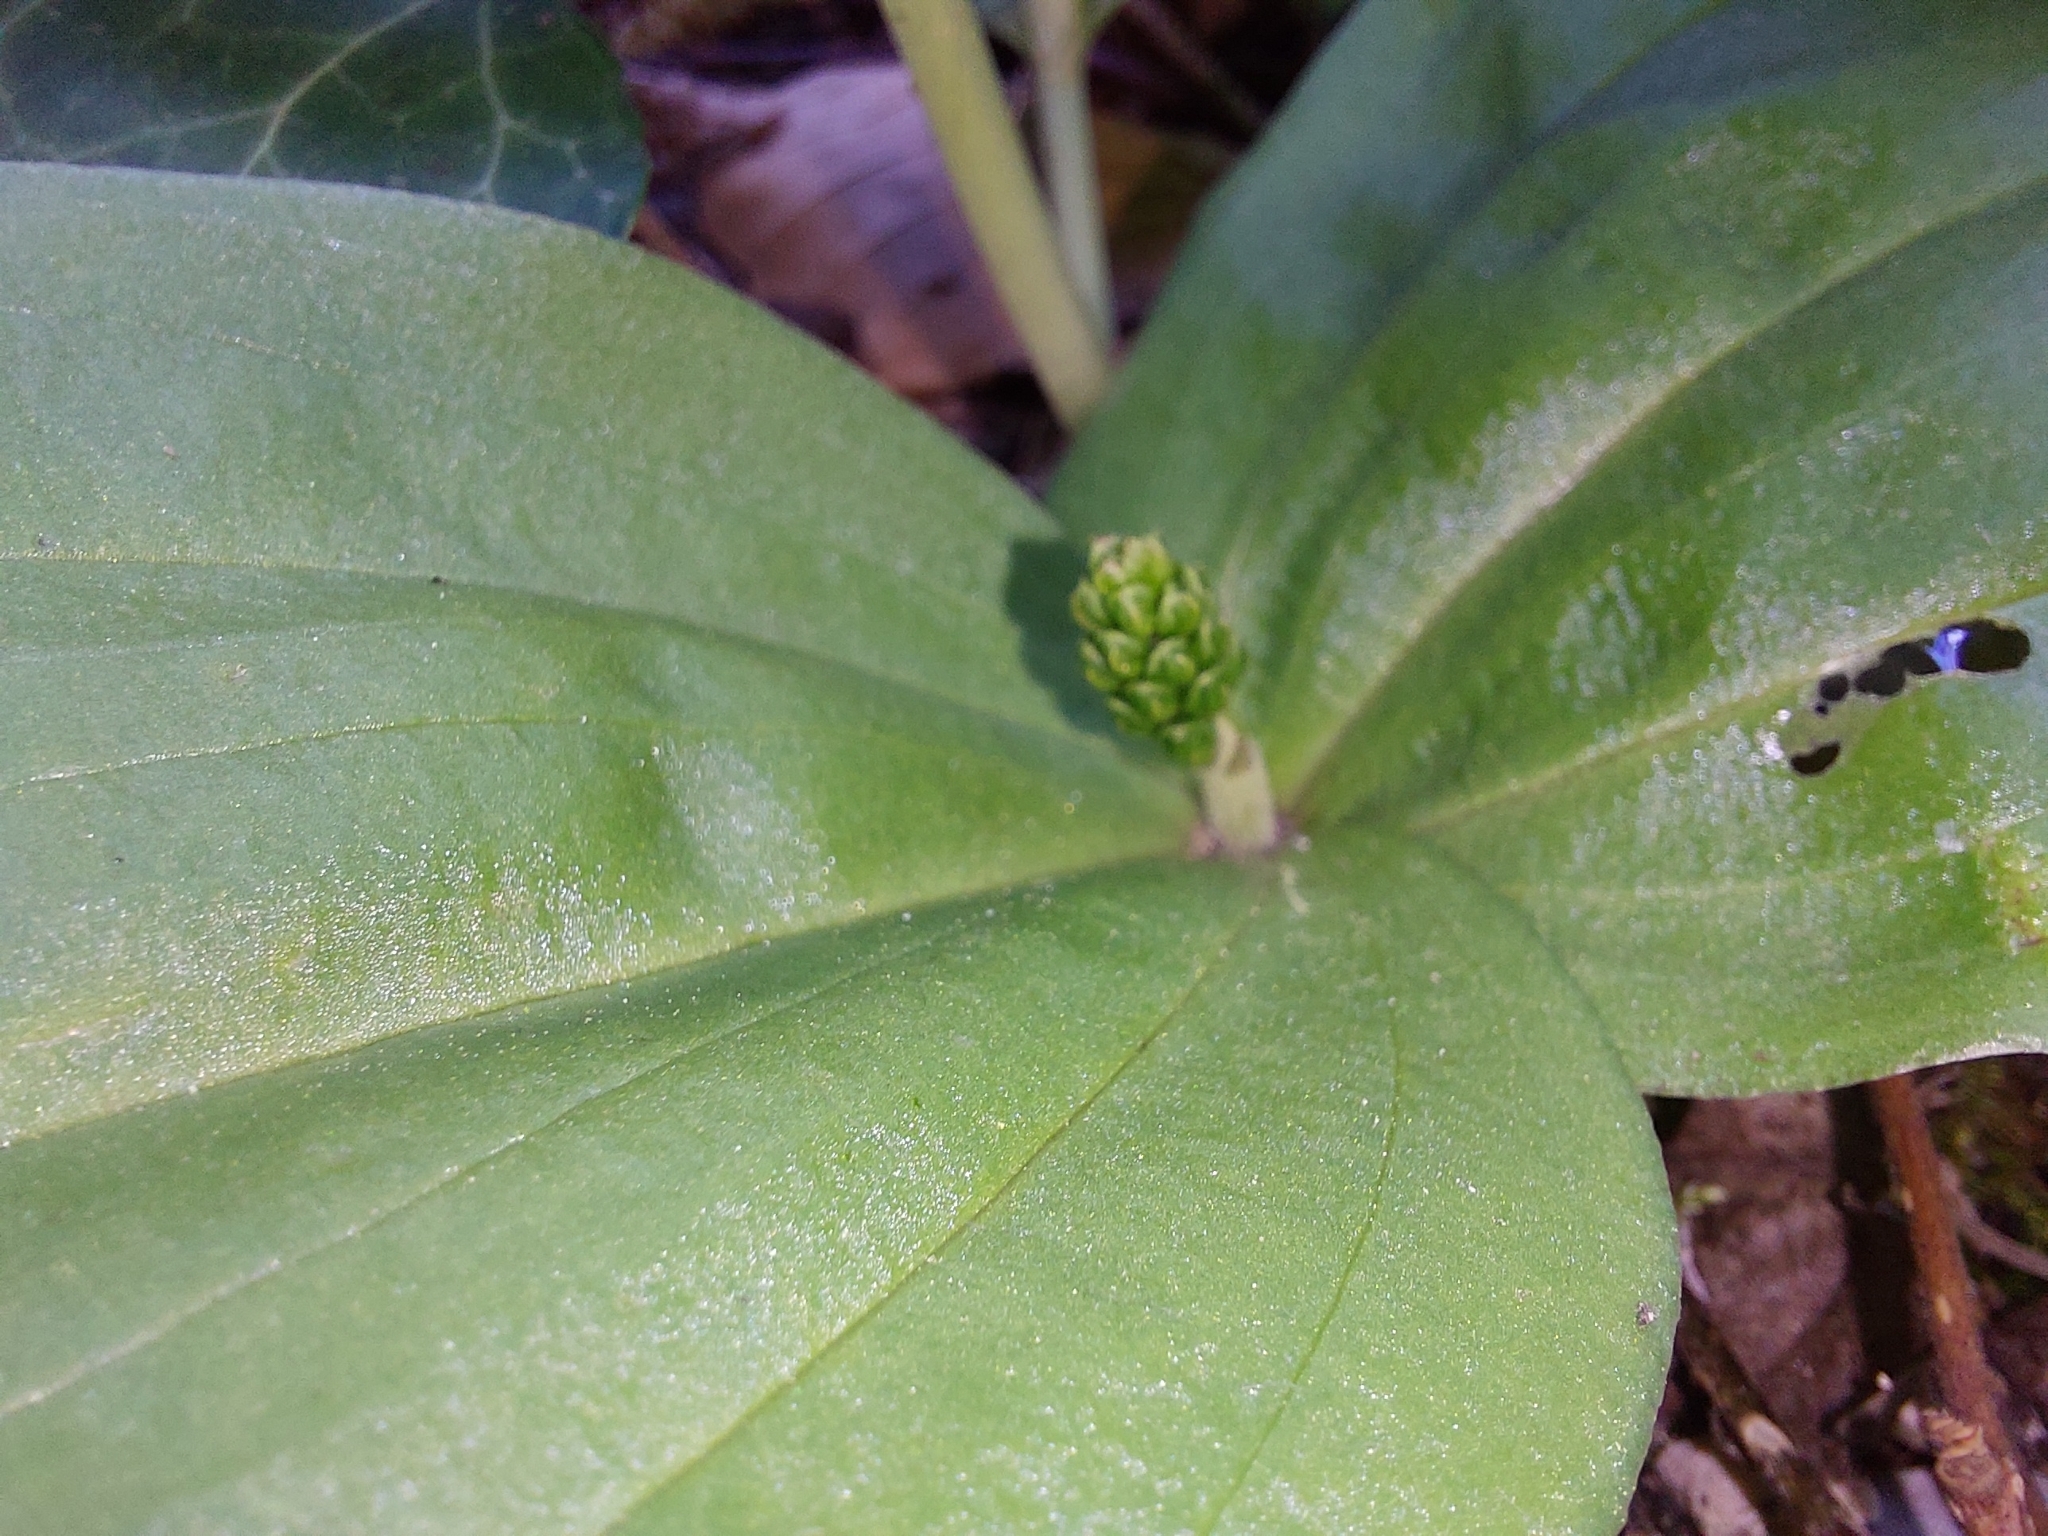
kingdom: Plantae
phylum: Tracheophyta
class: Liliopsida
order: Asparagales
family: Orchidaceae
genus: Neottia
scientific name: Neottia ovata
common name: Common twayblade
